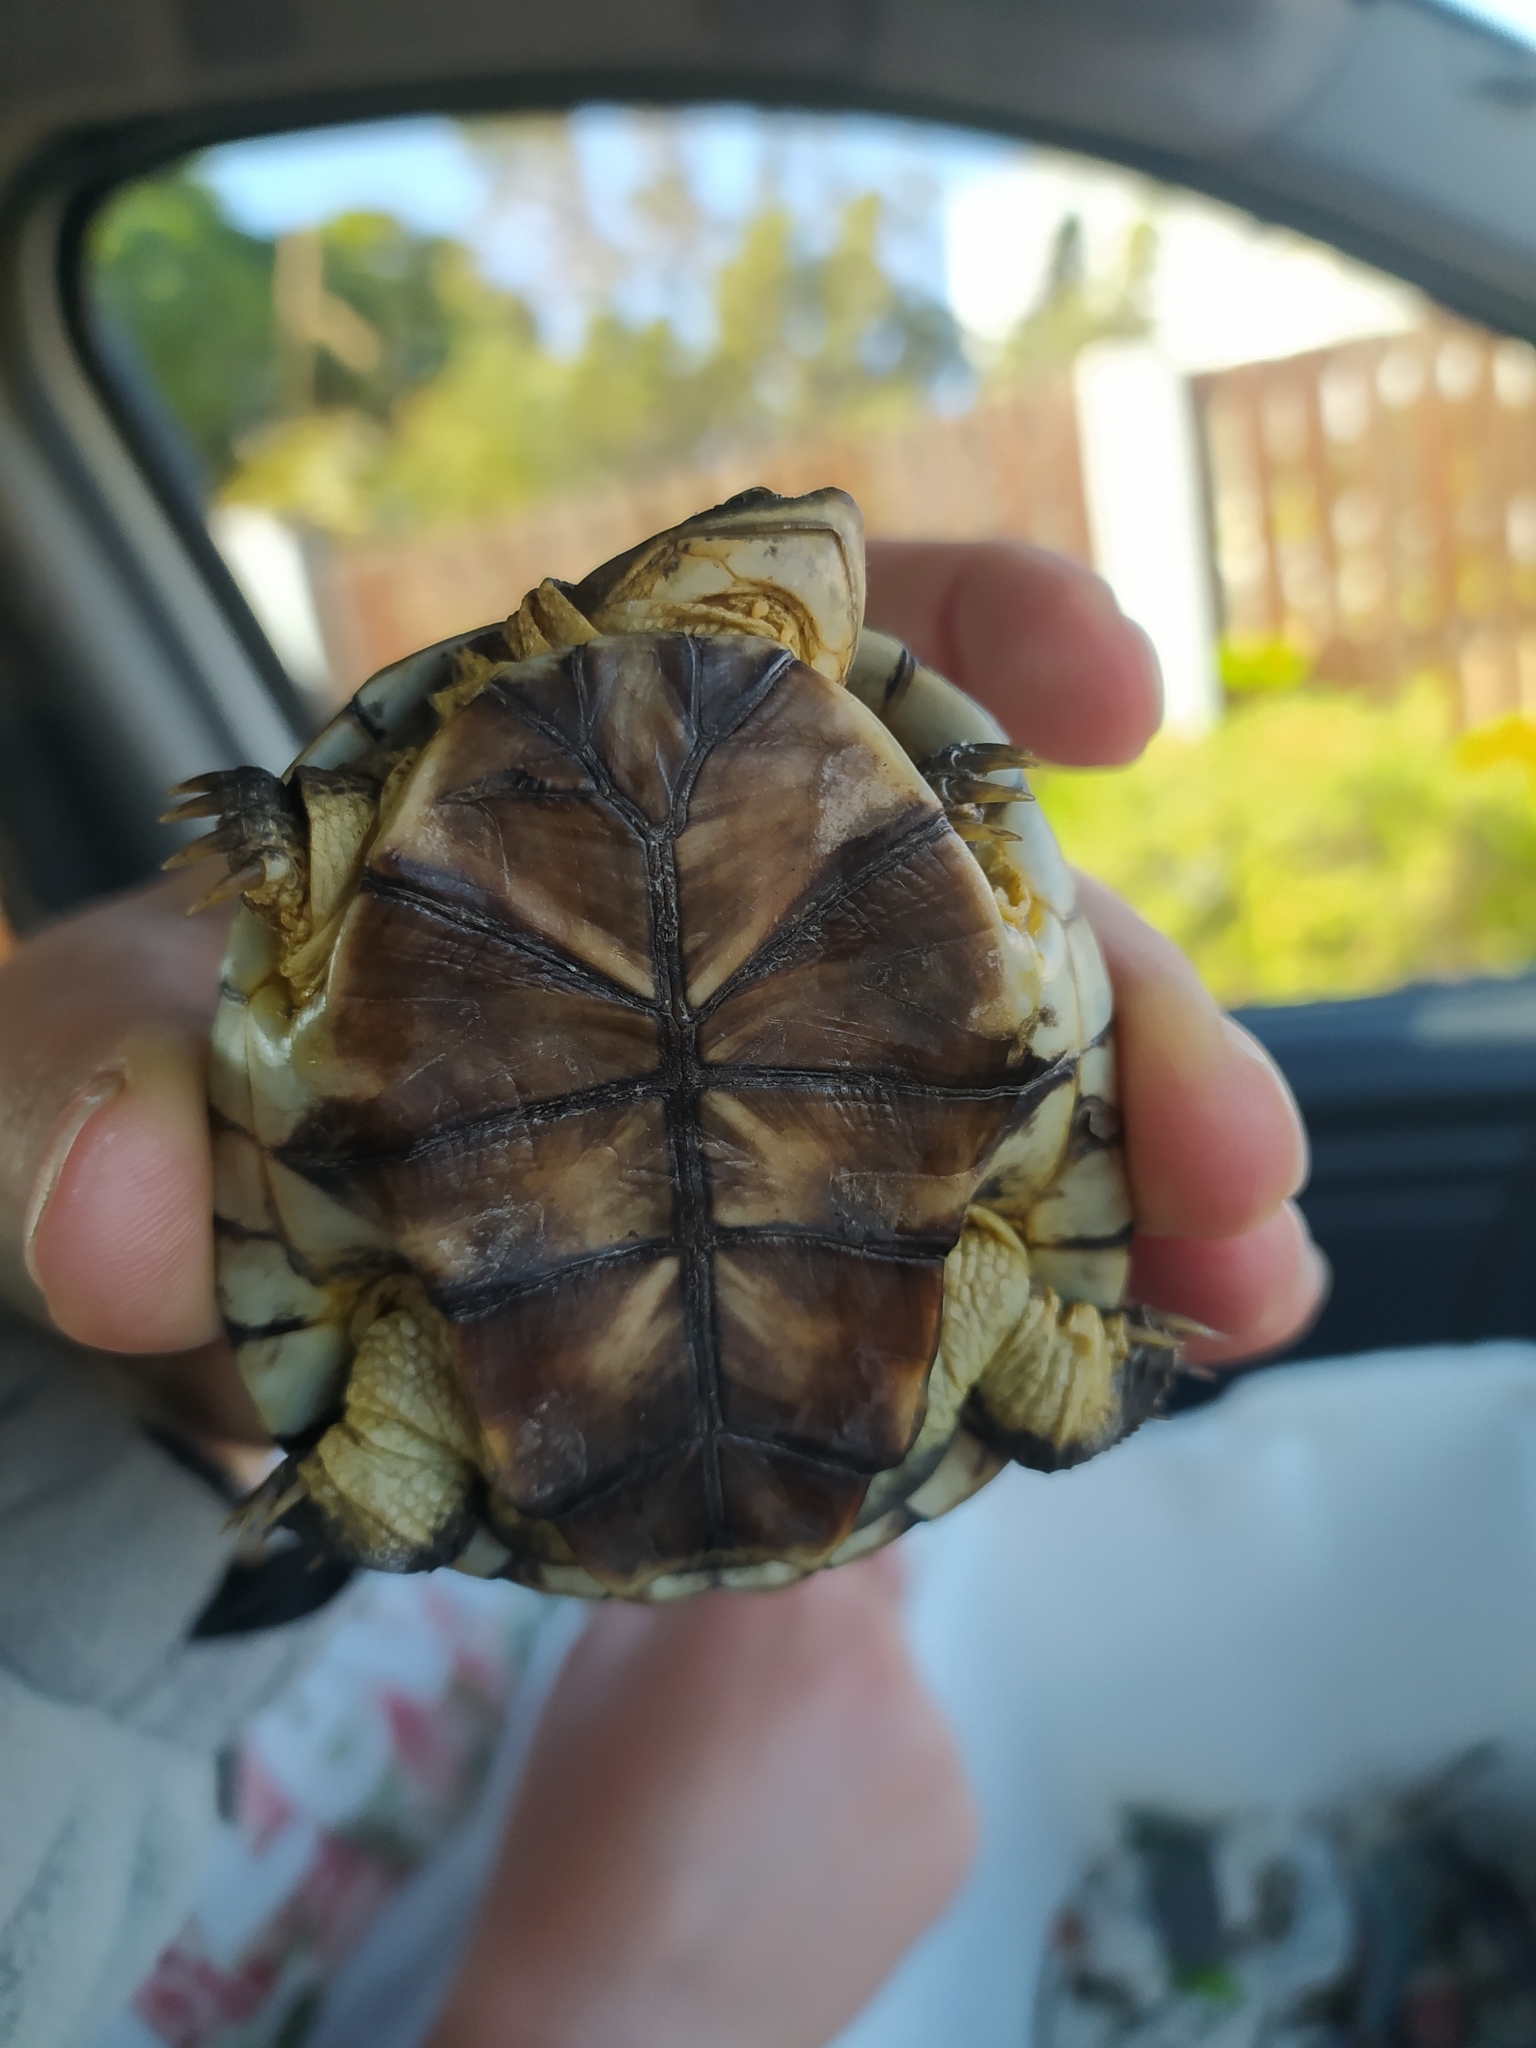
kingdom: Animalia
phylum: Chordata
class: Testudines
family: Pelomedusidae
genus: Pelomedusa
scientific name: Pelomedusa galeata
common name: South african helmeted terrapin
